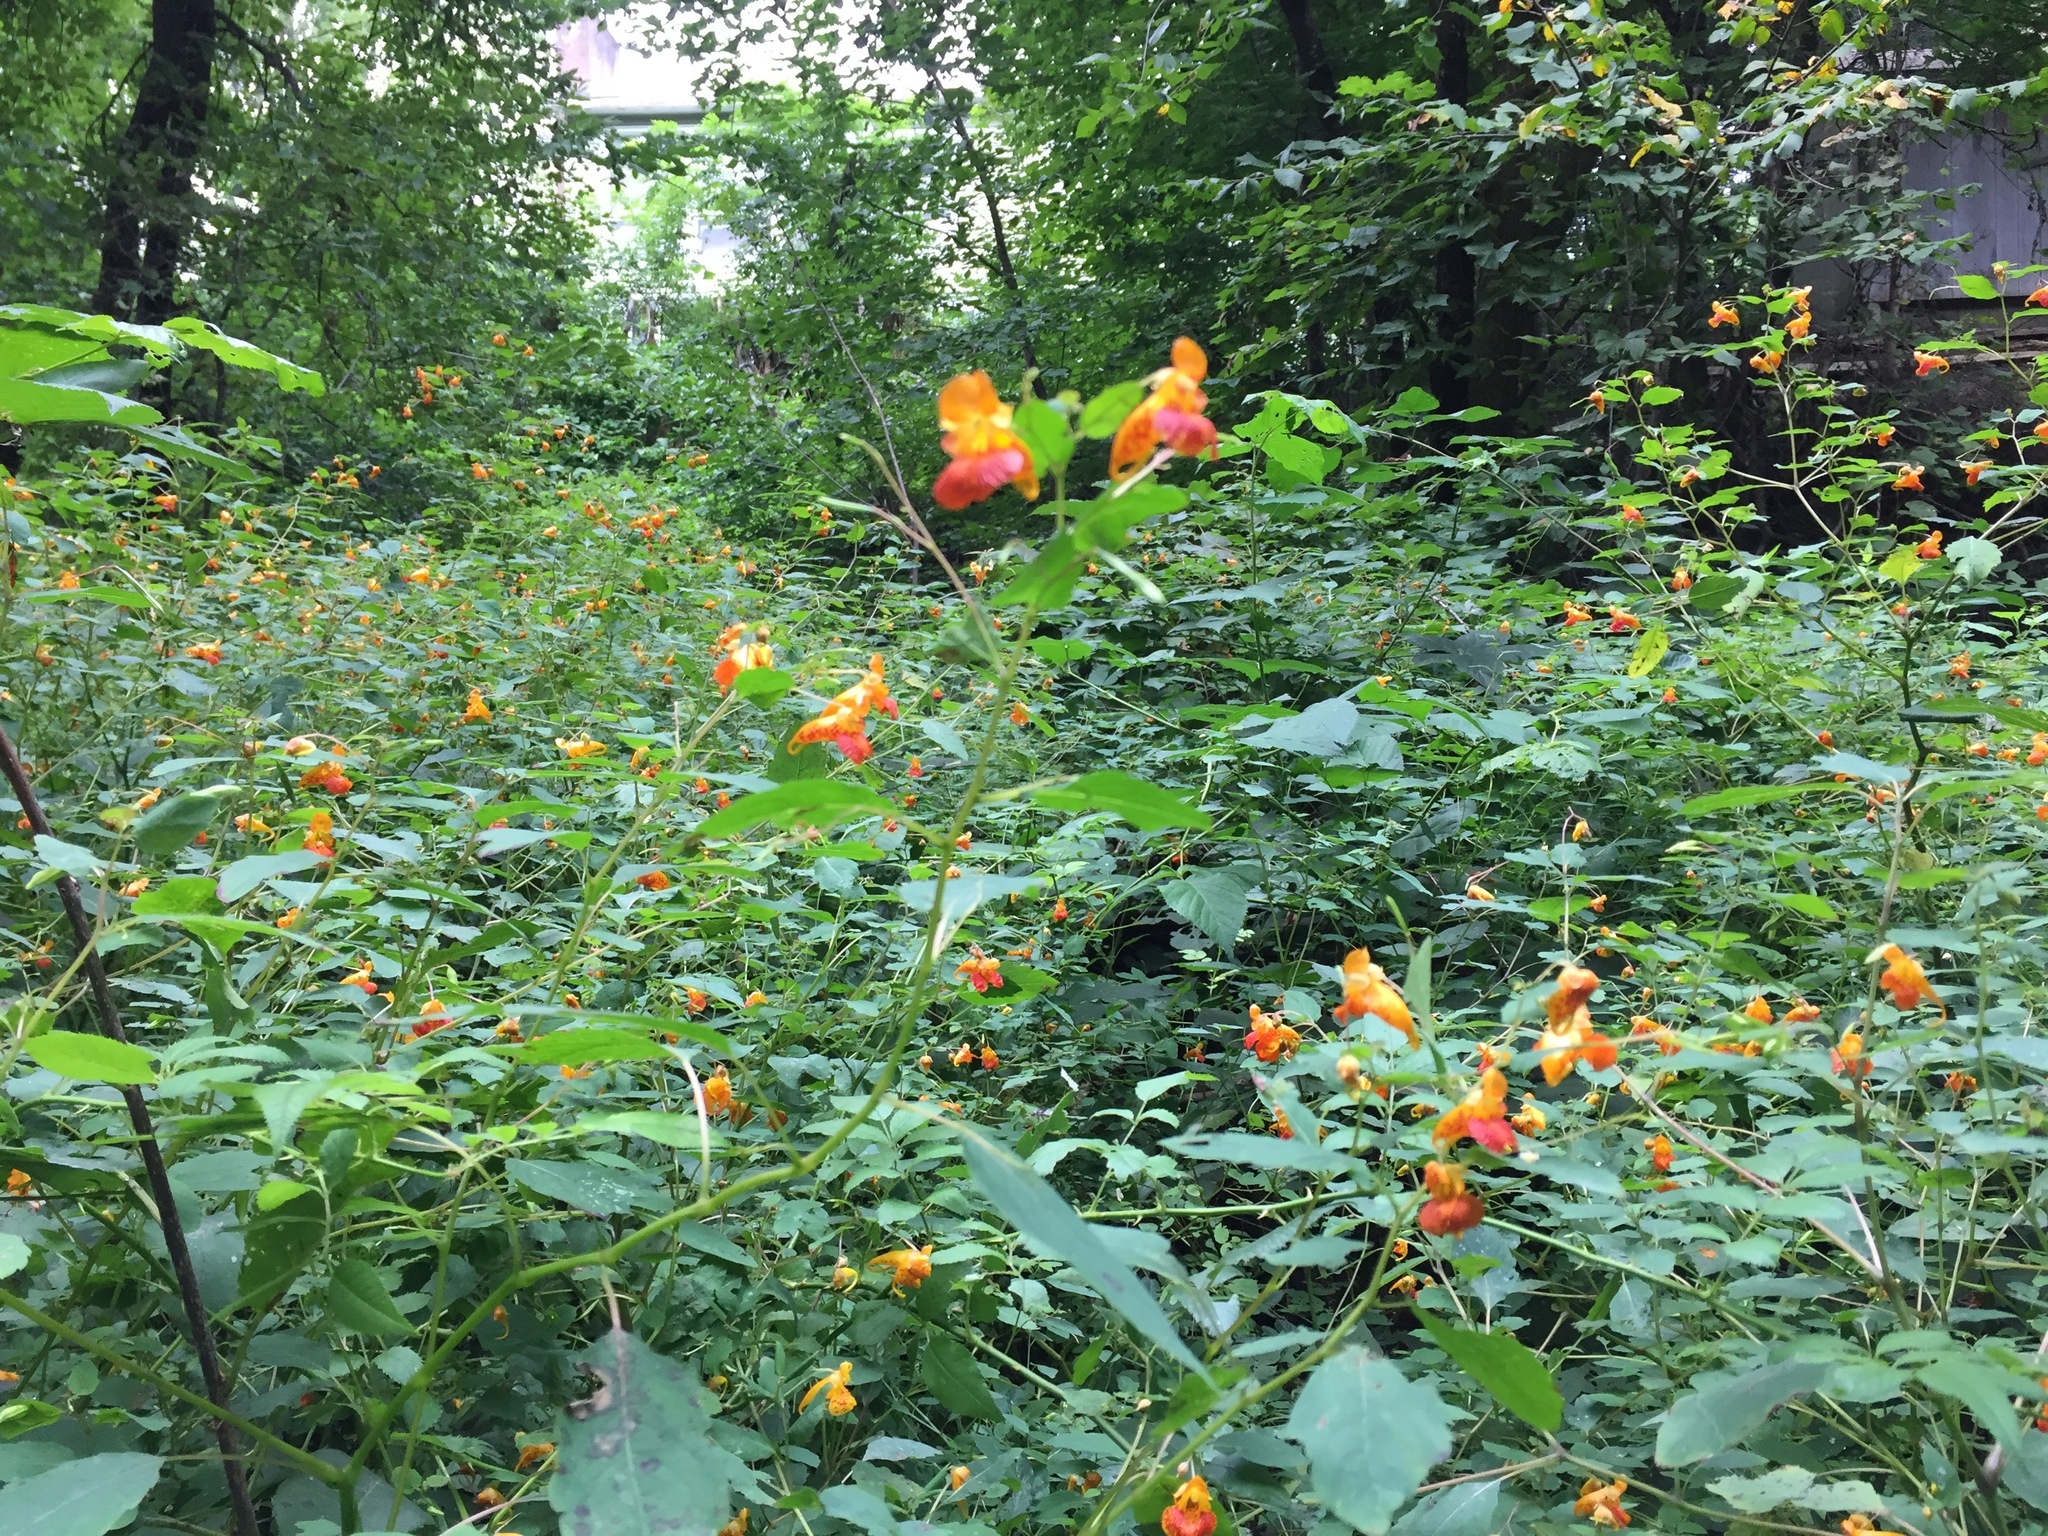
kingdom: Plantae
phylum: Tracheophyta
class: Magnoliopsida
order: Ericales
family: Balsaminaceae
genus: Impatiens
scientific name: Impatiens capensis
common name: Orange balsam
